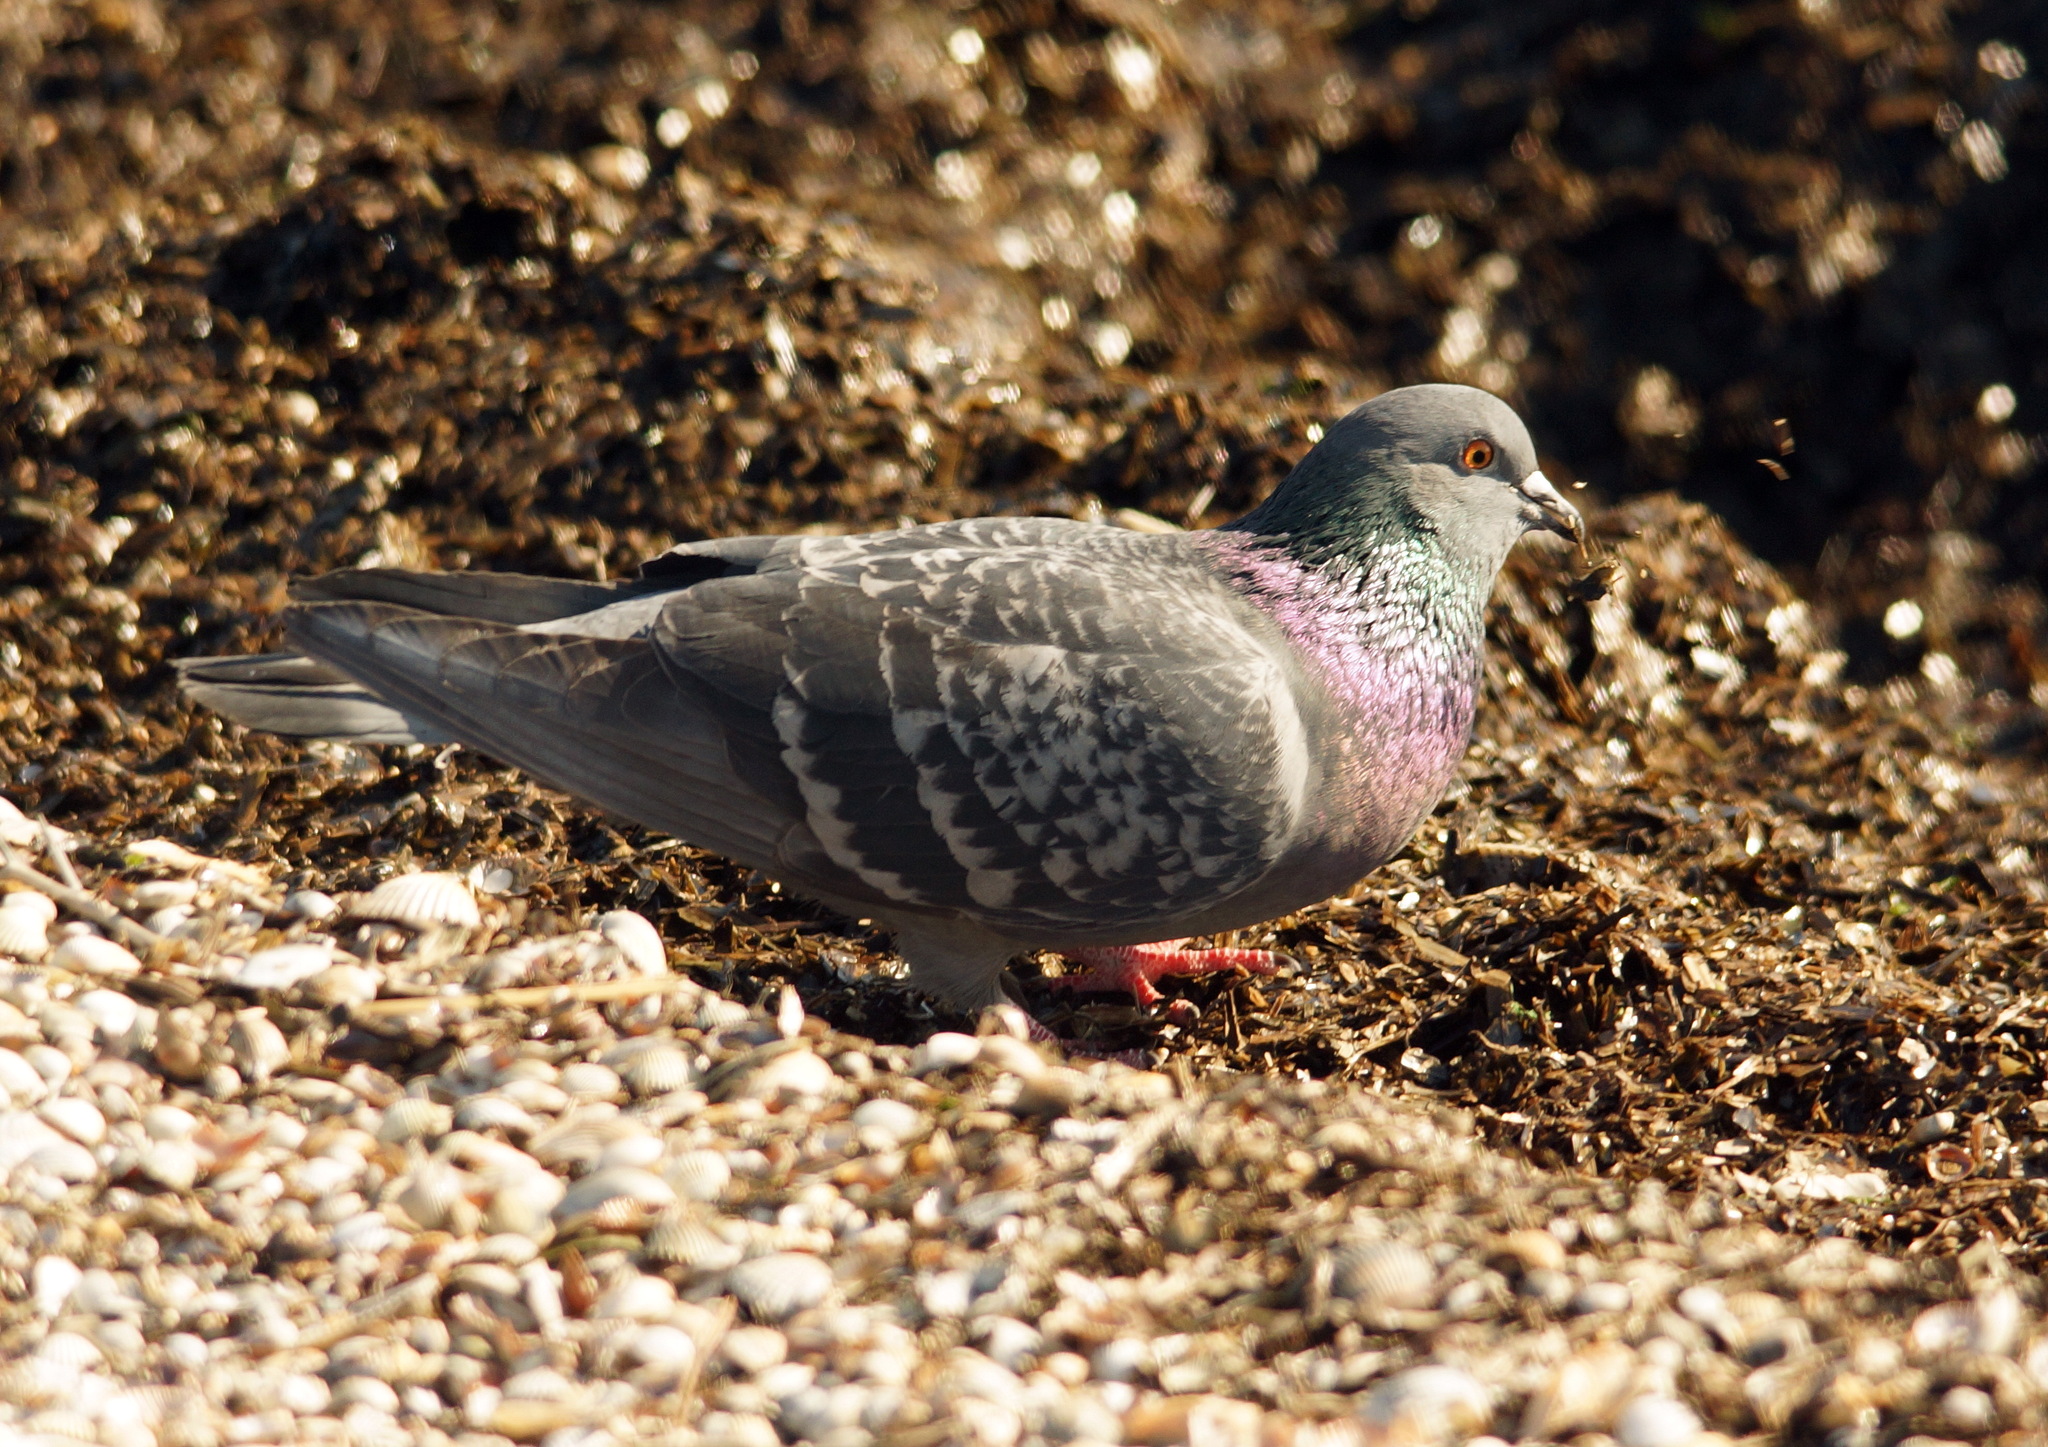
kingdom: Animalia
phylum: Chordata
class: Aves
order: Columbiformes
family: Columbidae
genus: Columba
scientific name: Columba livia
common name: Rock pigeon
